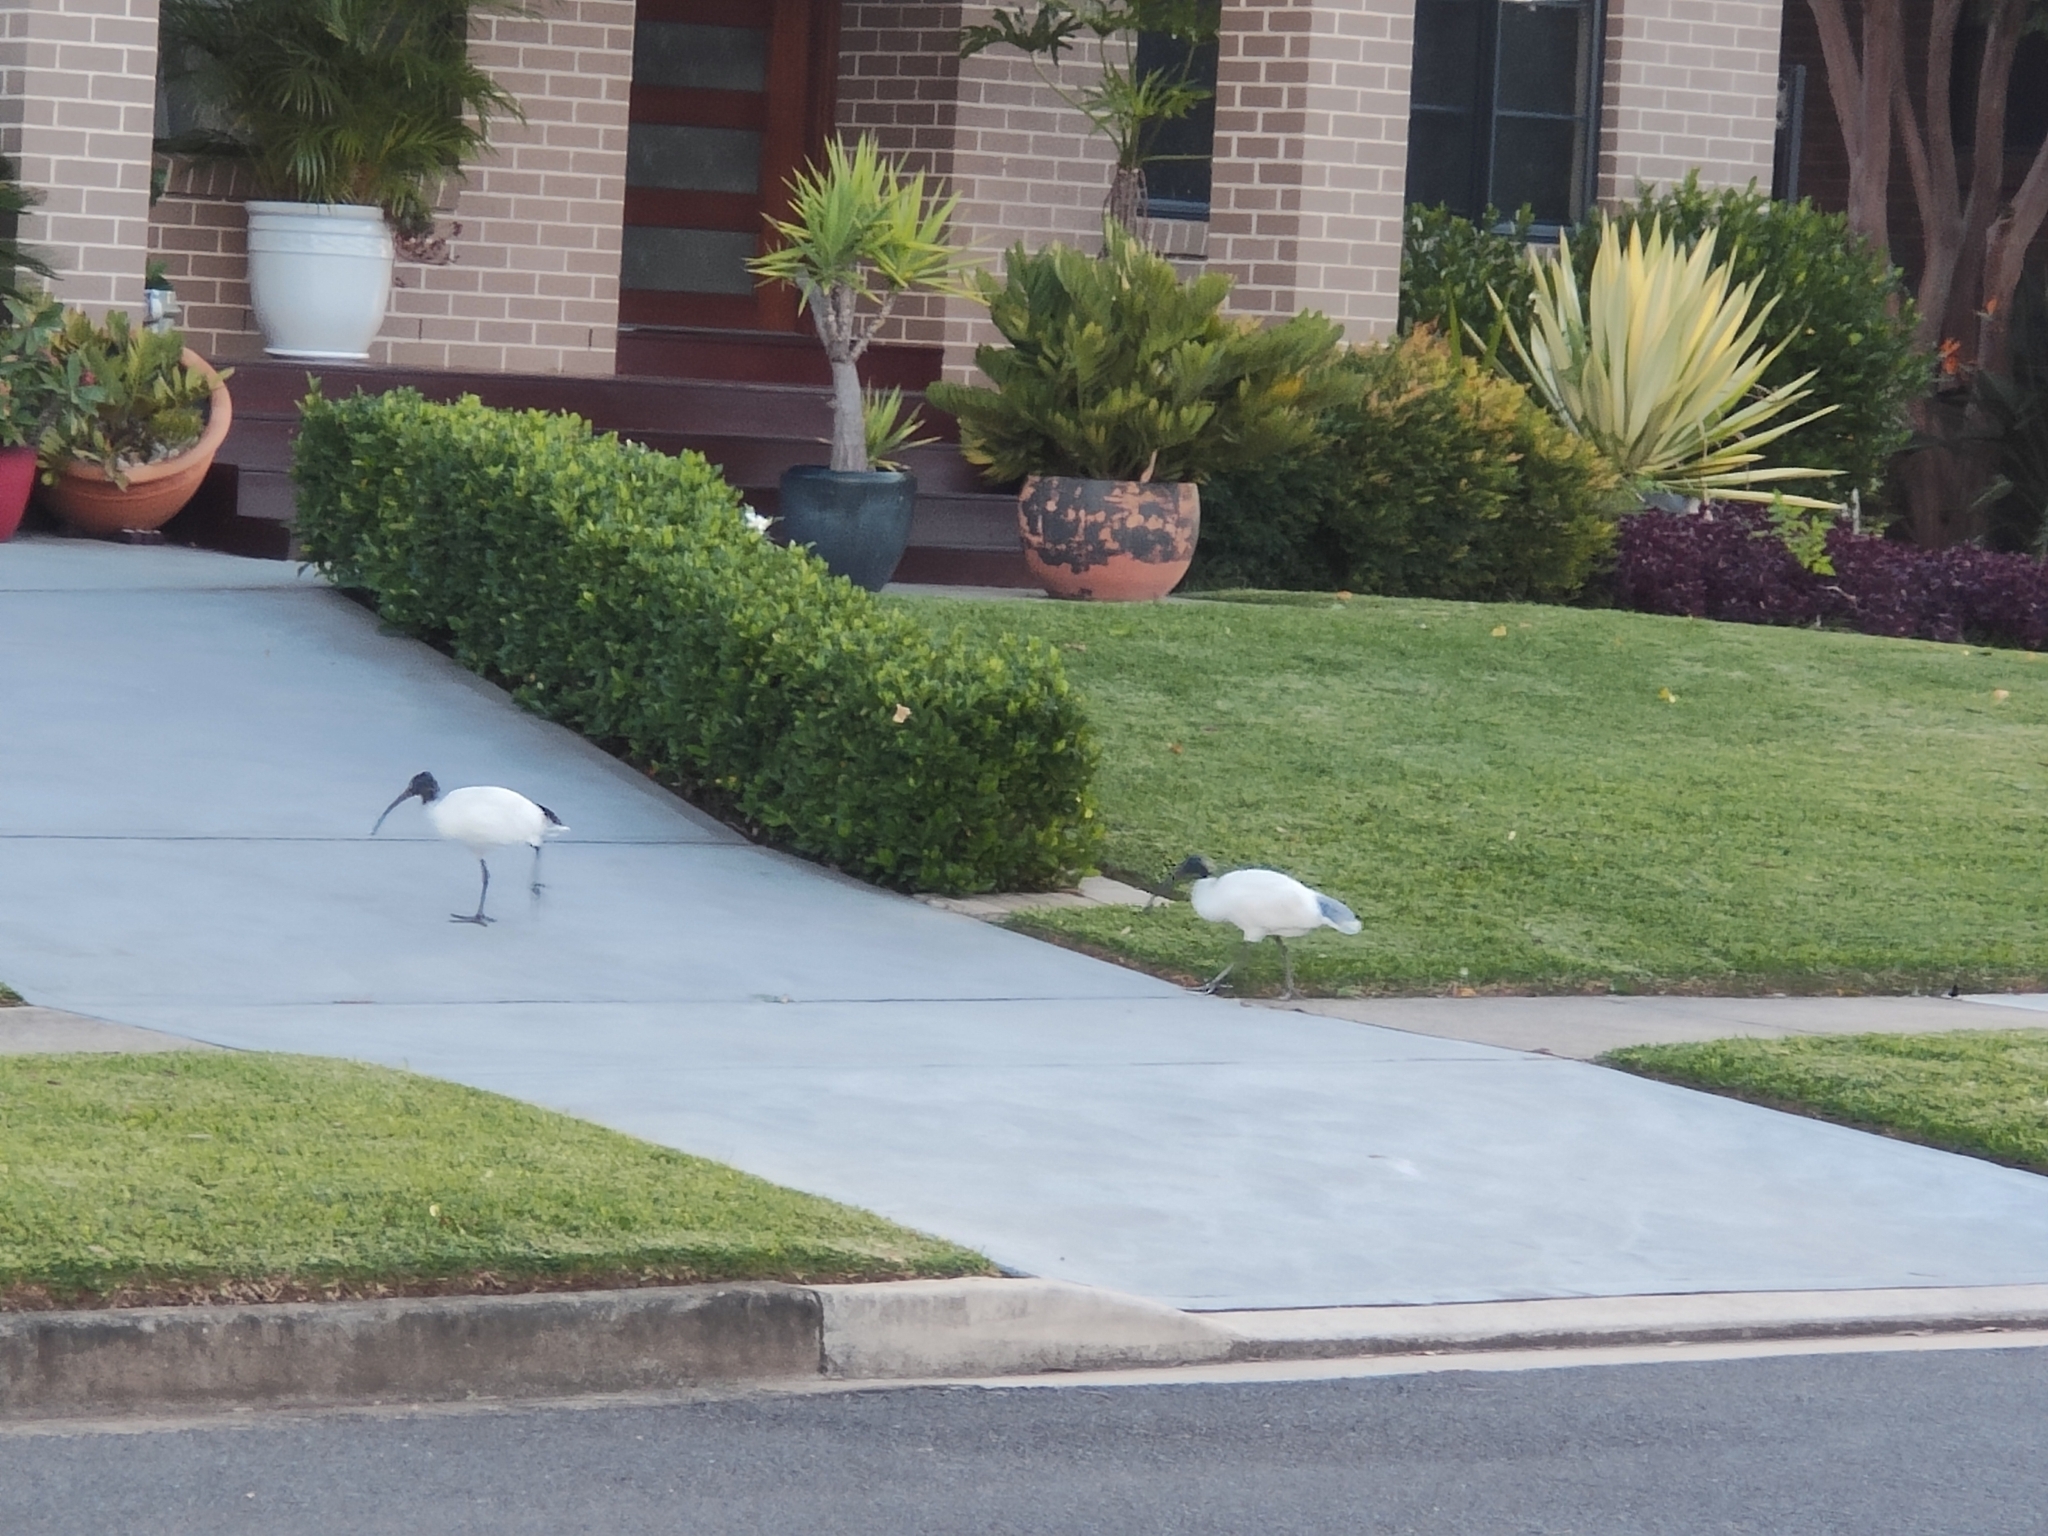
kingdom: Animalia
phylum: Chordata
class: Aves
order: Pelecaniformes
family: Threskiornithidae
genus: Threskiornis
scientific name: Threskiornis molucca
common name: Australian white ibis
